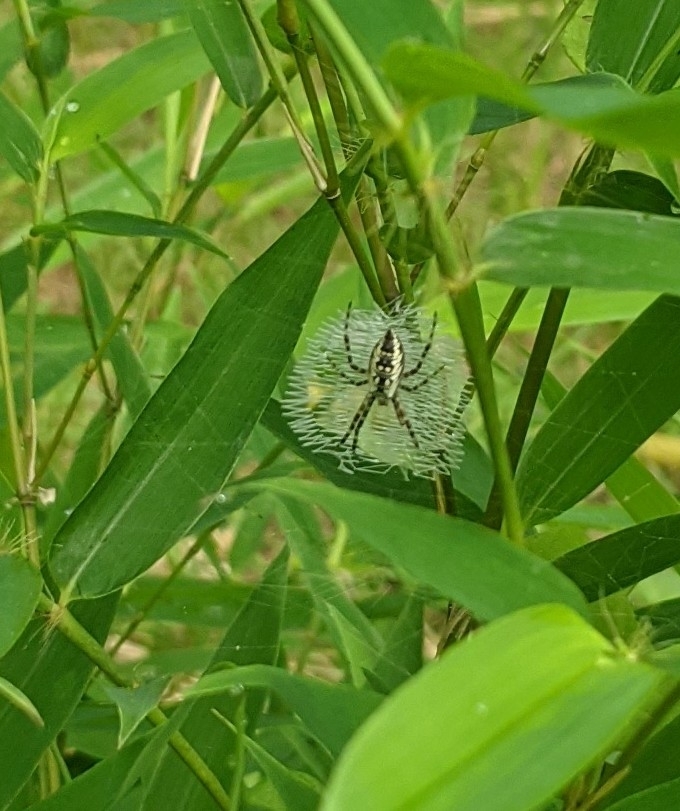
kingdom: Animalia
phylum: Arthropoda
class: Arachnida
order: Araneae
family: Araneidae
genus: Argiope
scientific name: Argiope aurantia
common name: Orb weavers
